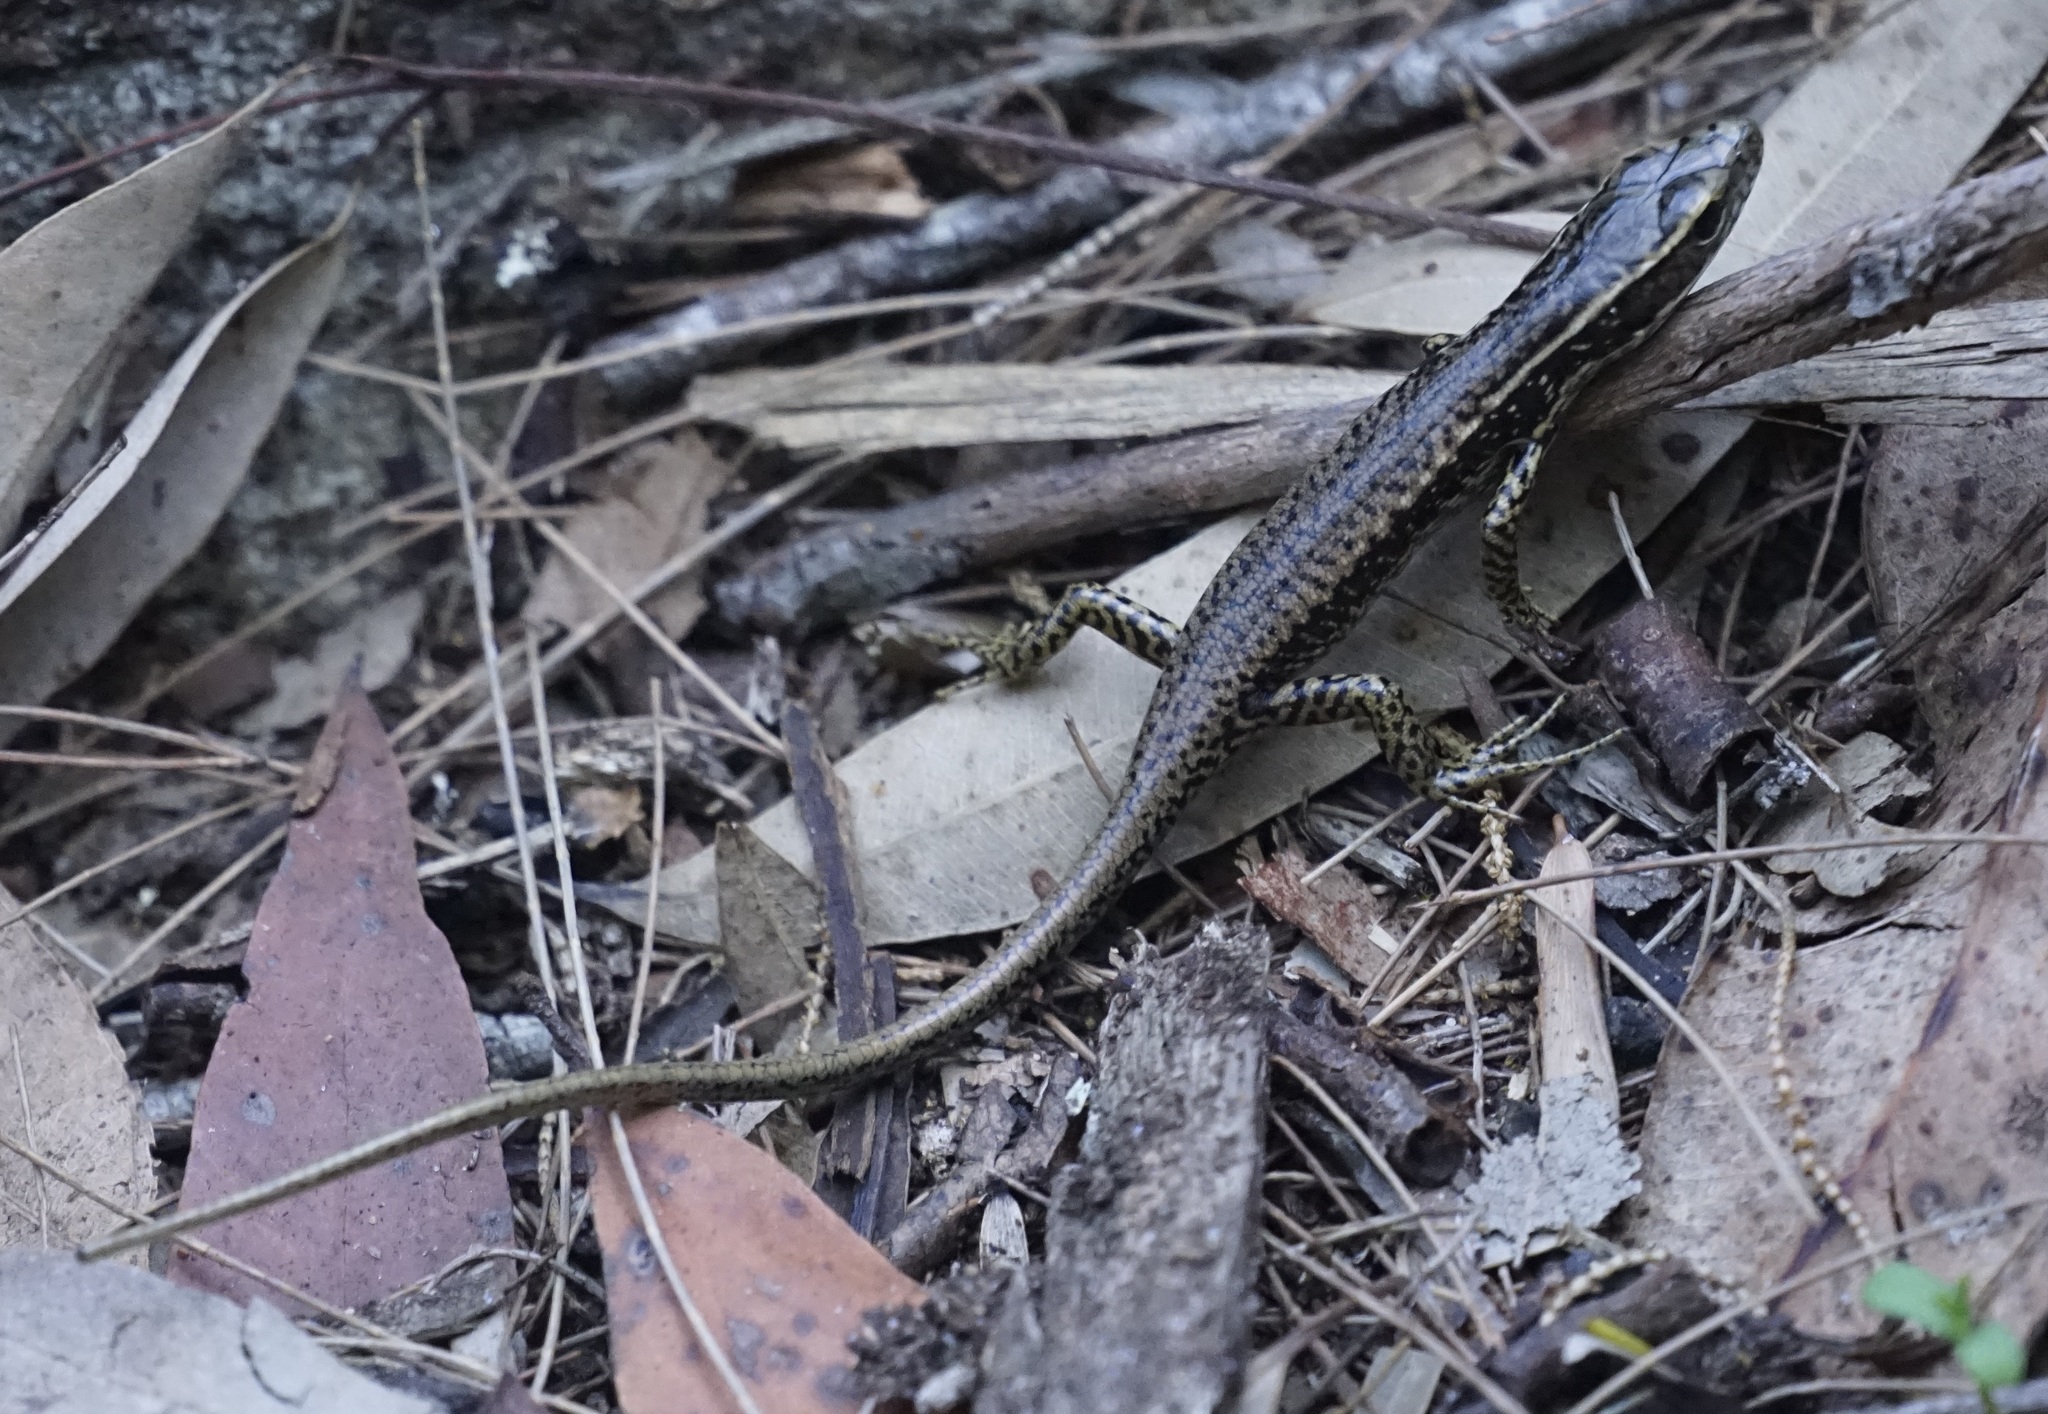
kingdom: Animalia
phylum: Chordata
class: Squamata
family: Scincidae
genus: Eulamprus
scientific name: Eulamprus quoyii
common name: Eastern water skink
